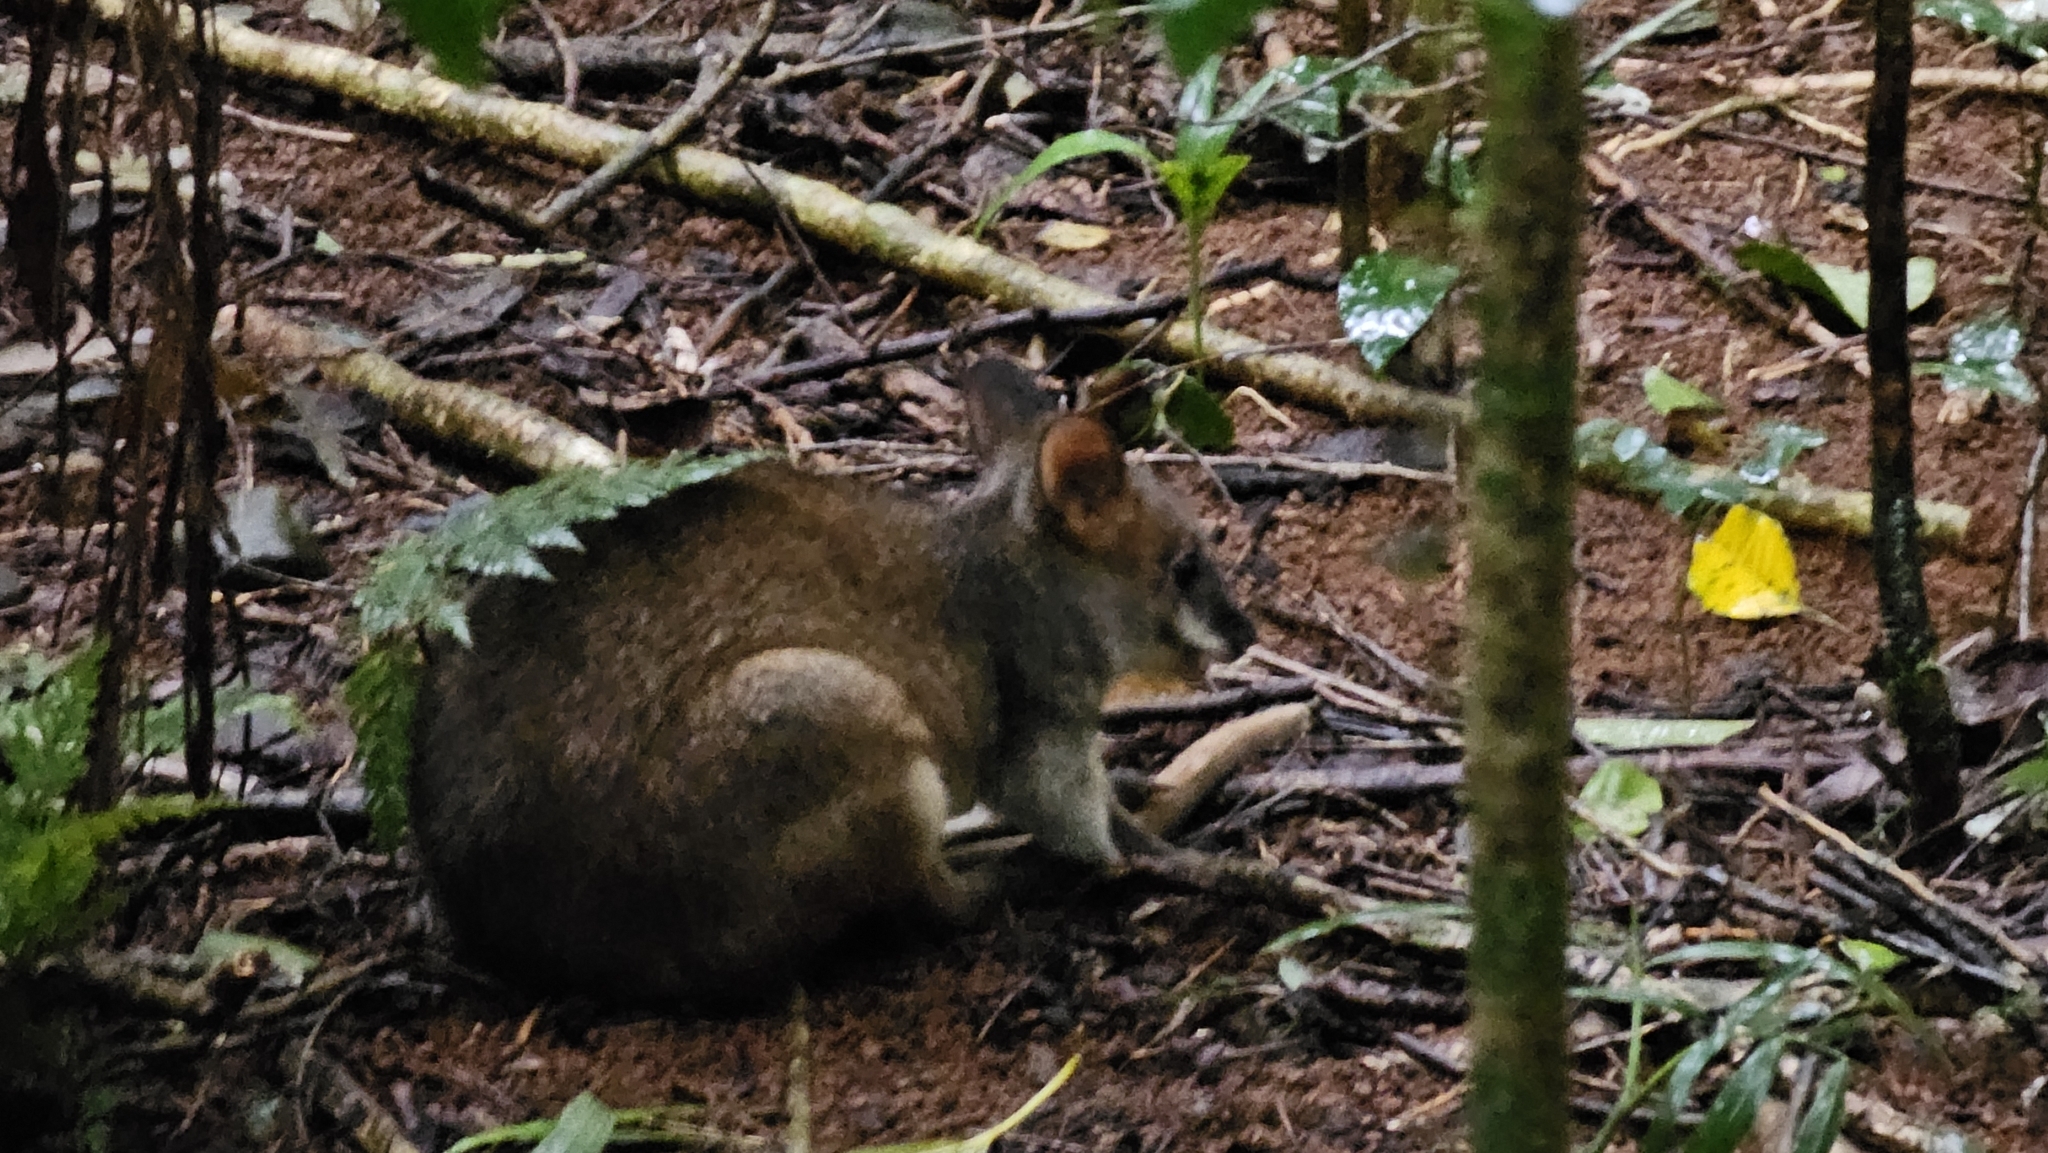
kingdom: Animalia
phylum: Chordata
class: Mammalia
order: Diprotodontia
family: Macropodidae
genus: Thylogale
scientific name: Thylogale stigmatica
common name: Red-legged pademelon
